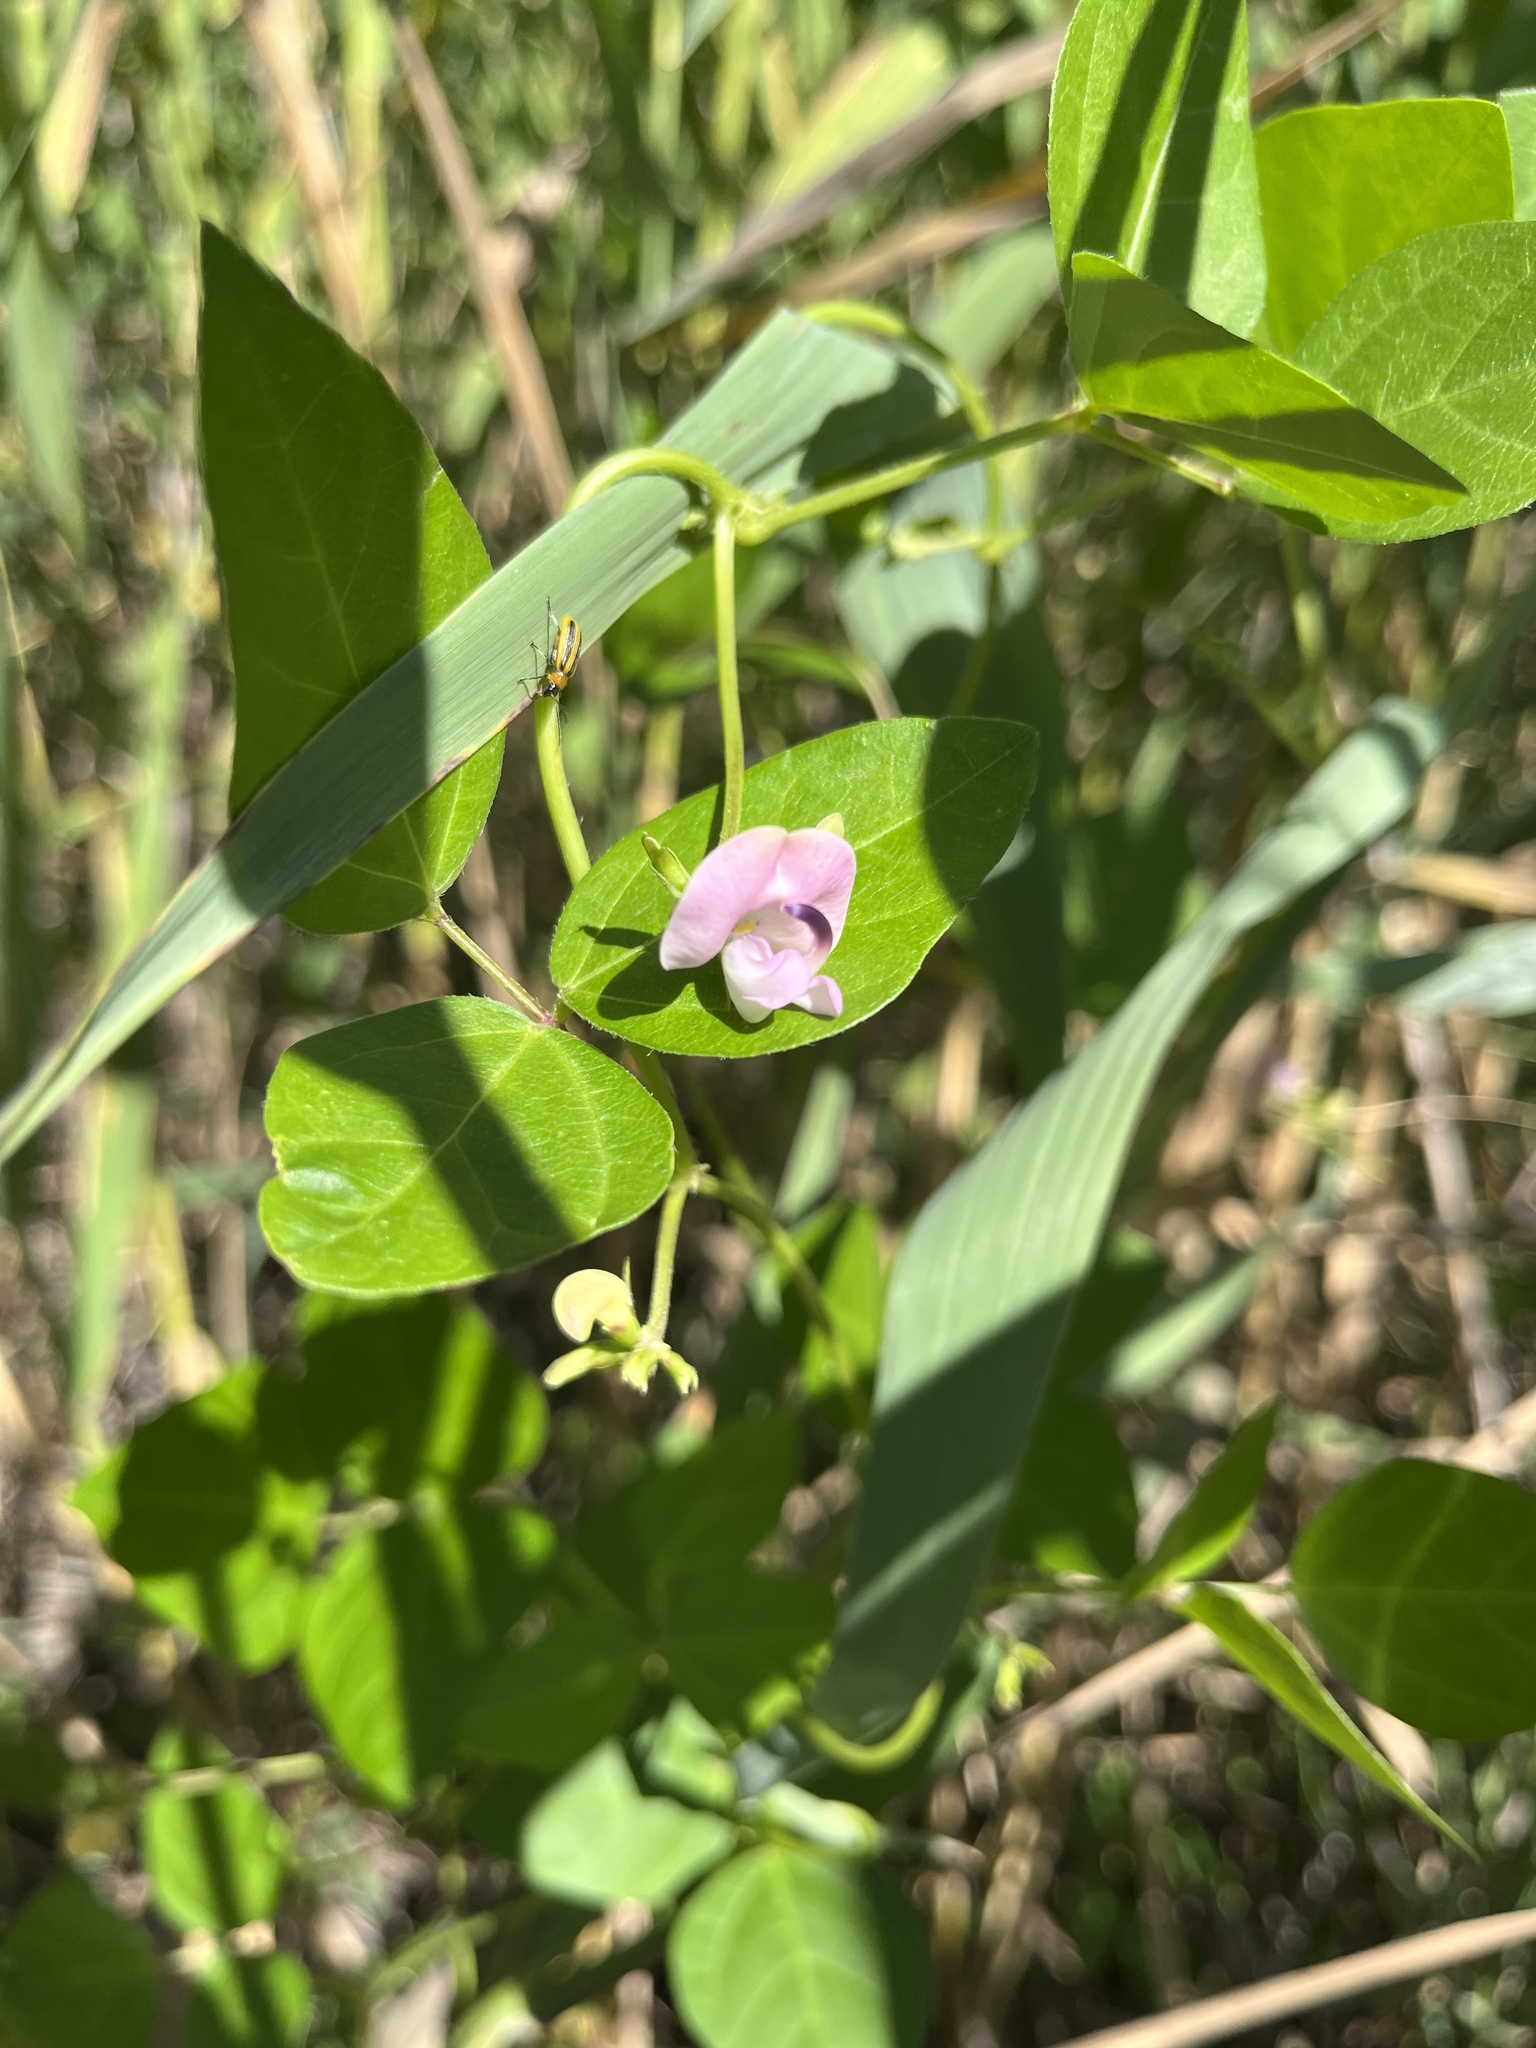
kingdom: Plantae
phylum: Tracheophyta
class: Magnoliopsida
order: Fabales
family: Fabaceae
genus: Strophostyles
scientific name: Strophostyles helvola
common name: Trailing wild bean
